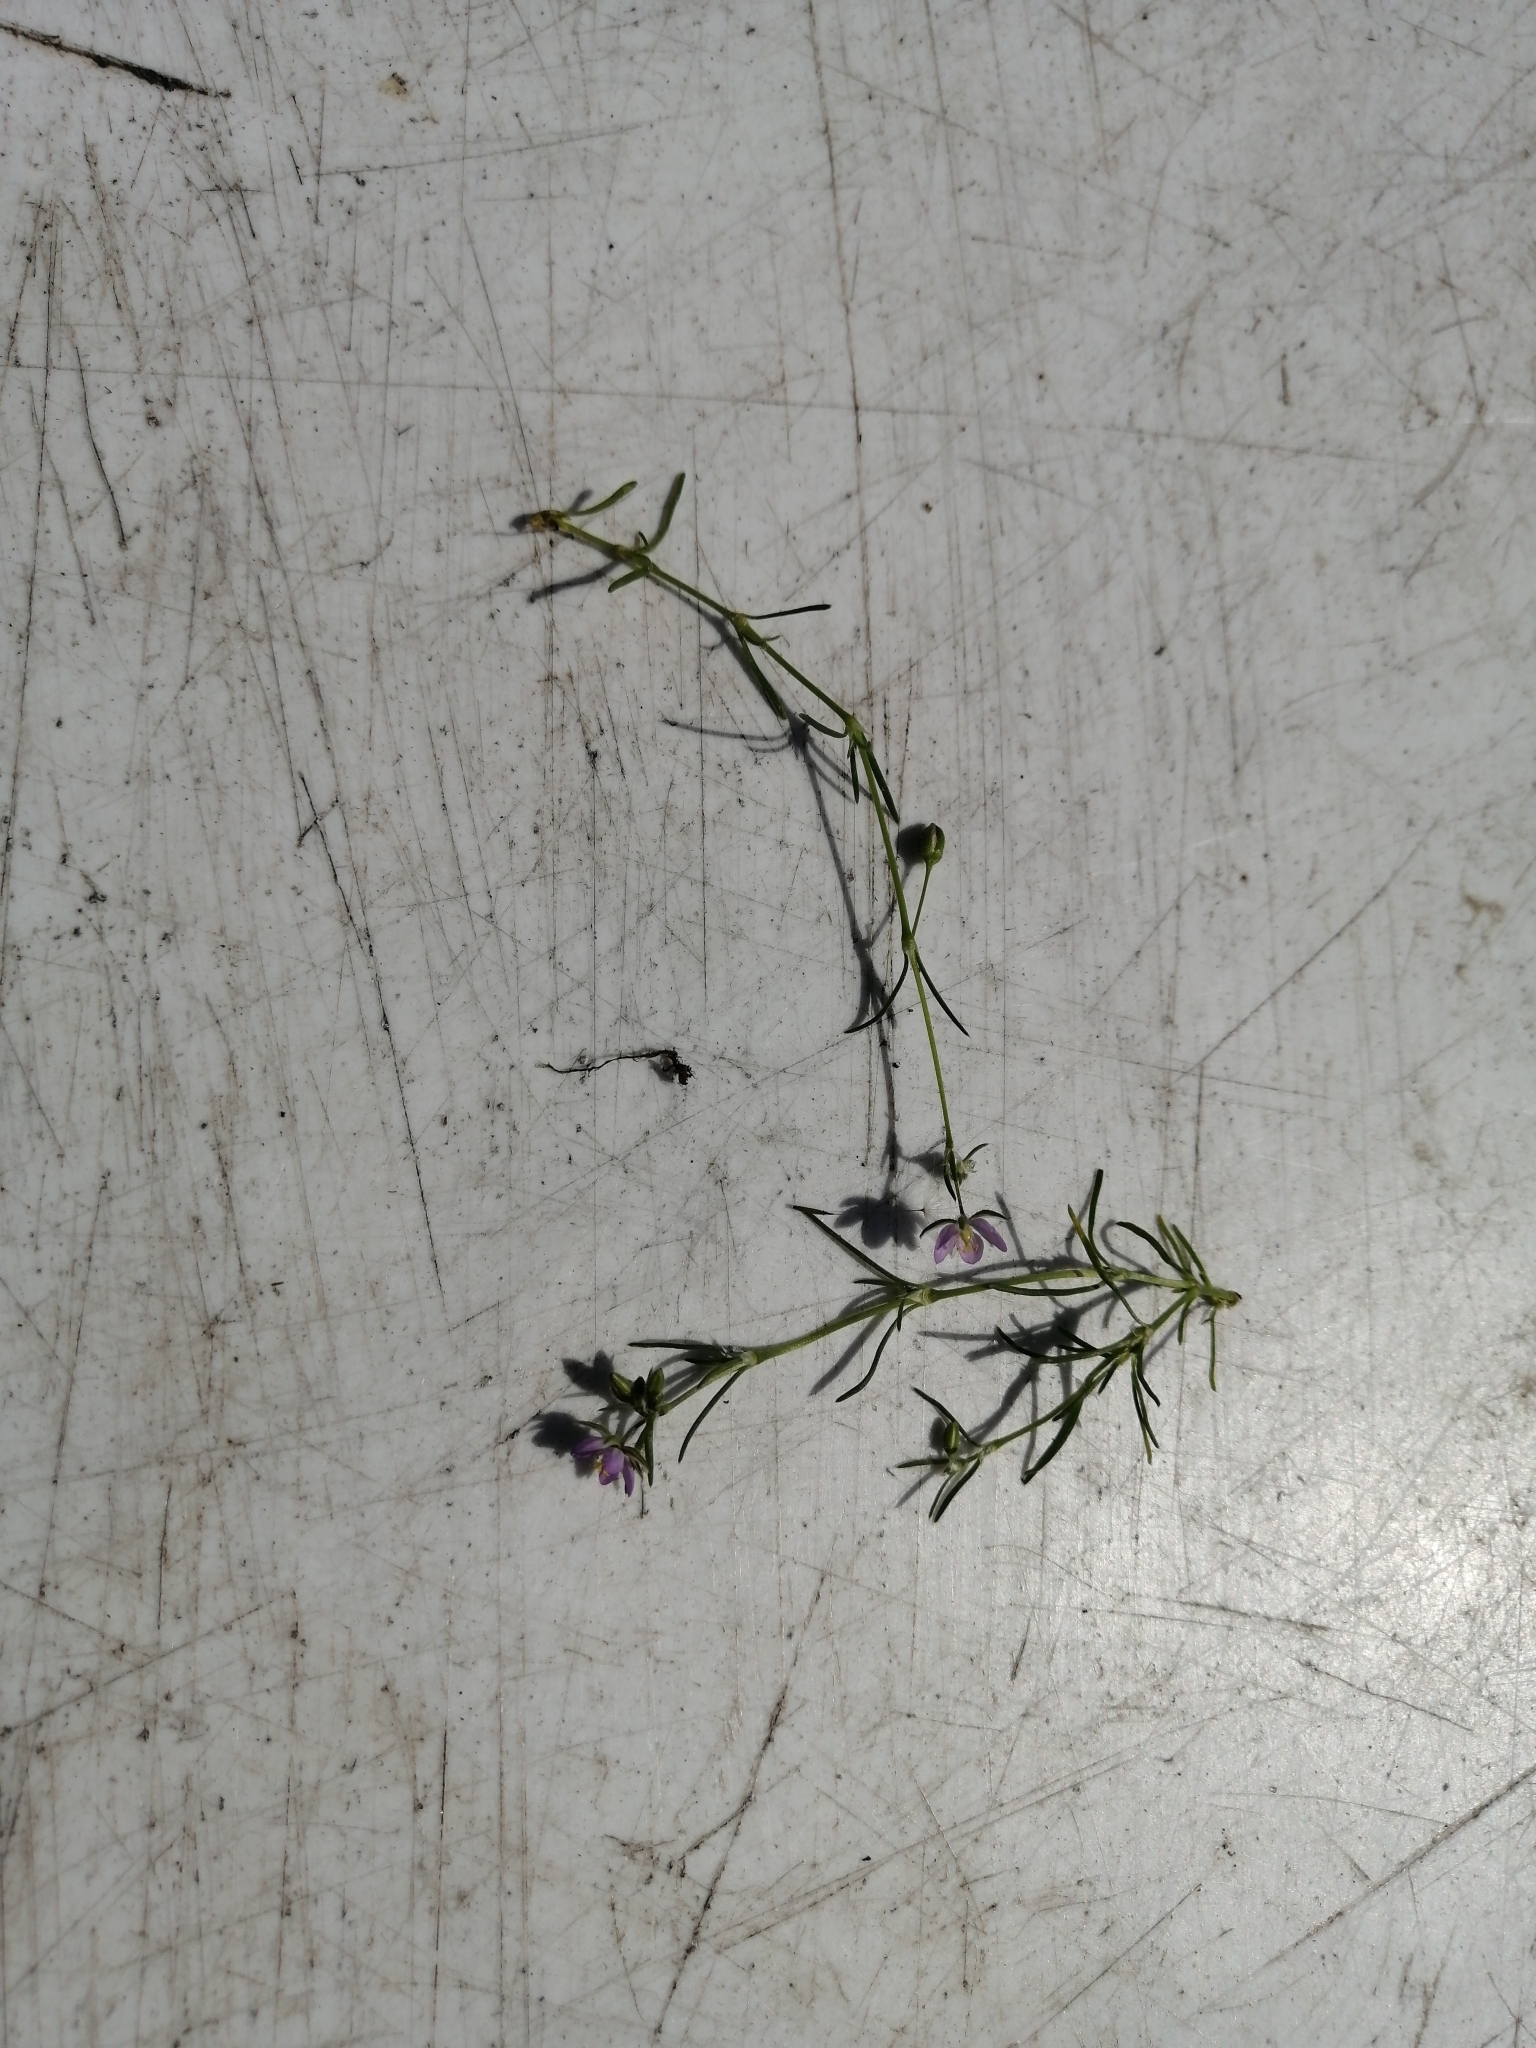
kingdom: Plantae
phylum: Tracheophyta
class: Magnoliopsida
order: Caryophyllales
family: Caryophyllaceae
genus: Spergularia
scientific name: Spergularia rubra
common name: Red sand-spurrey
